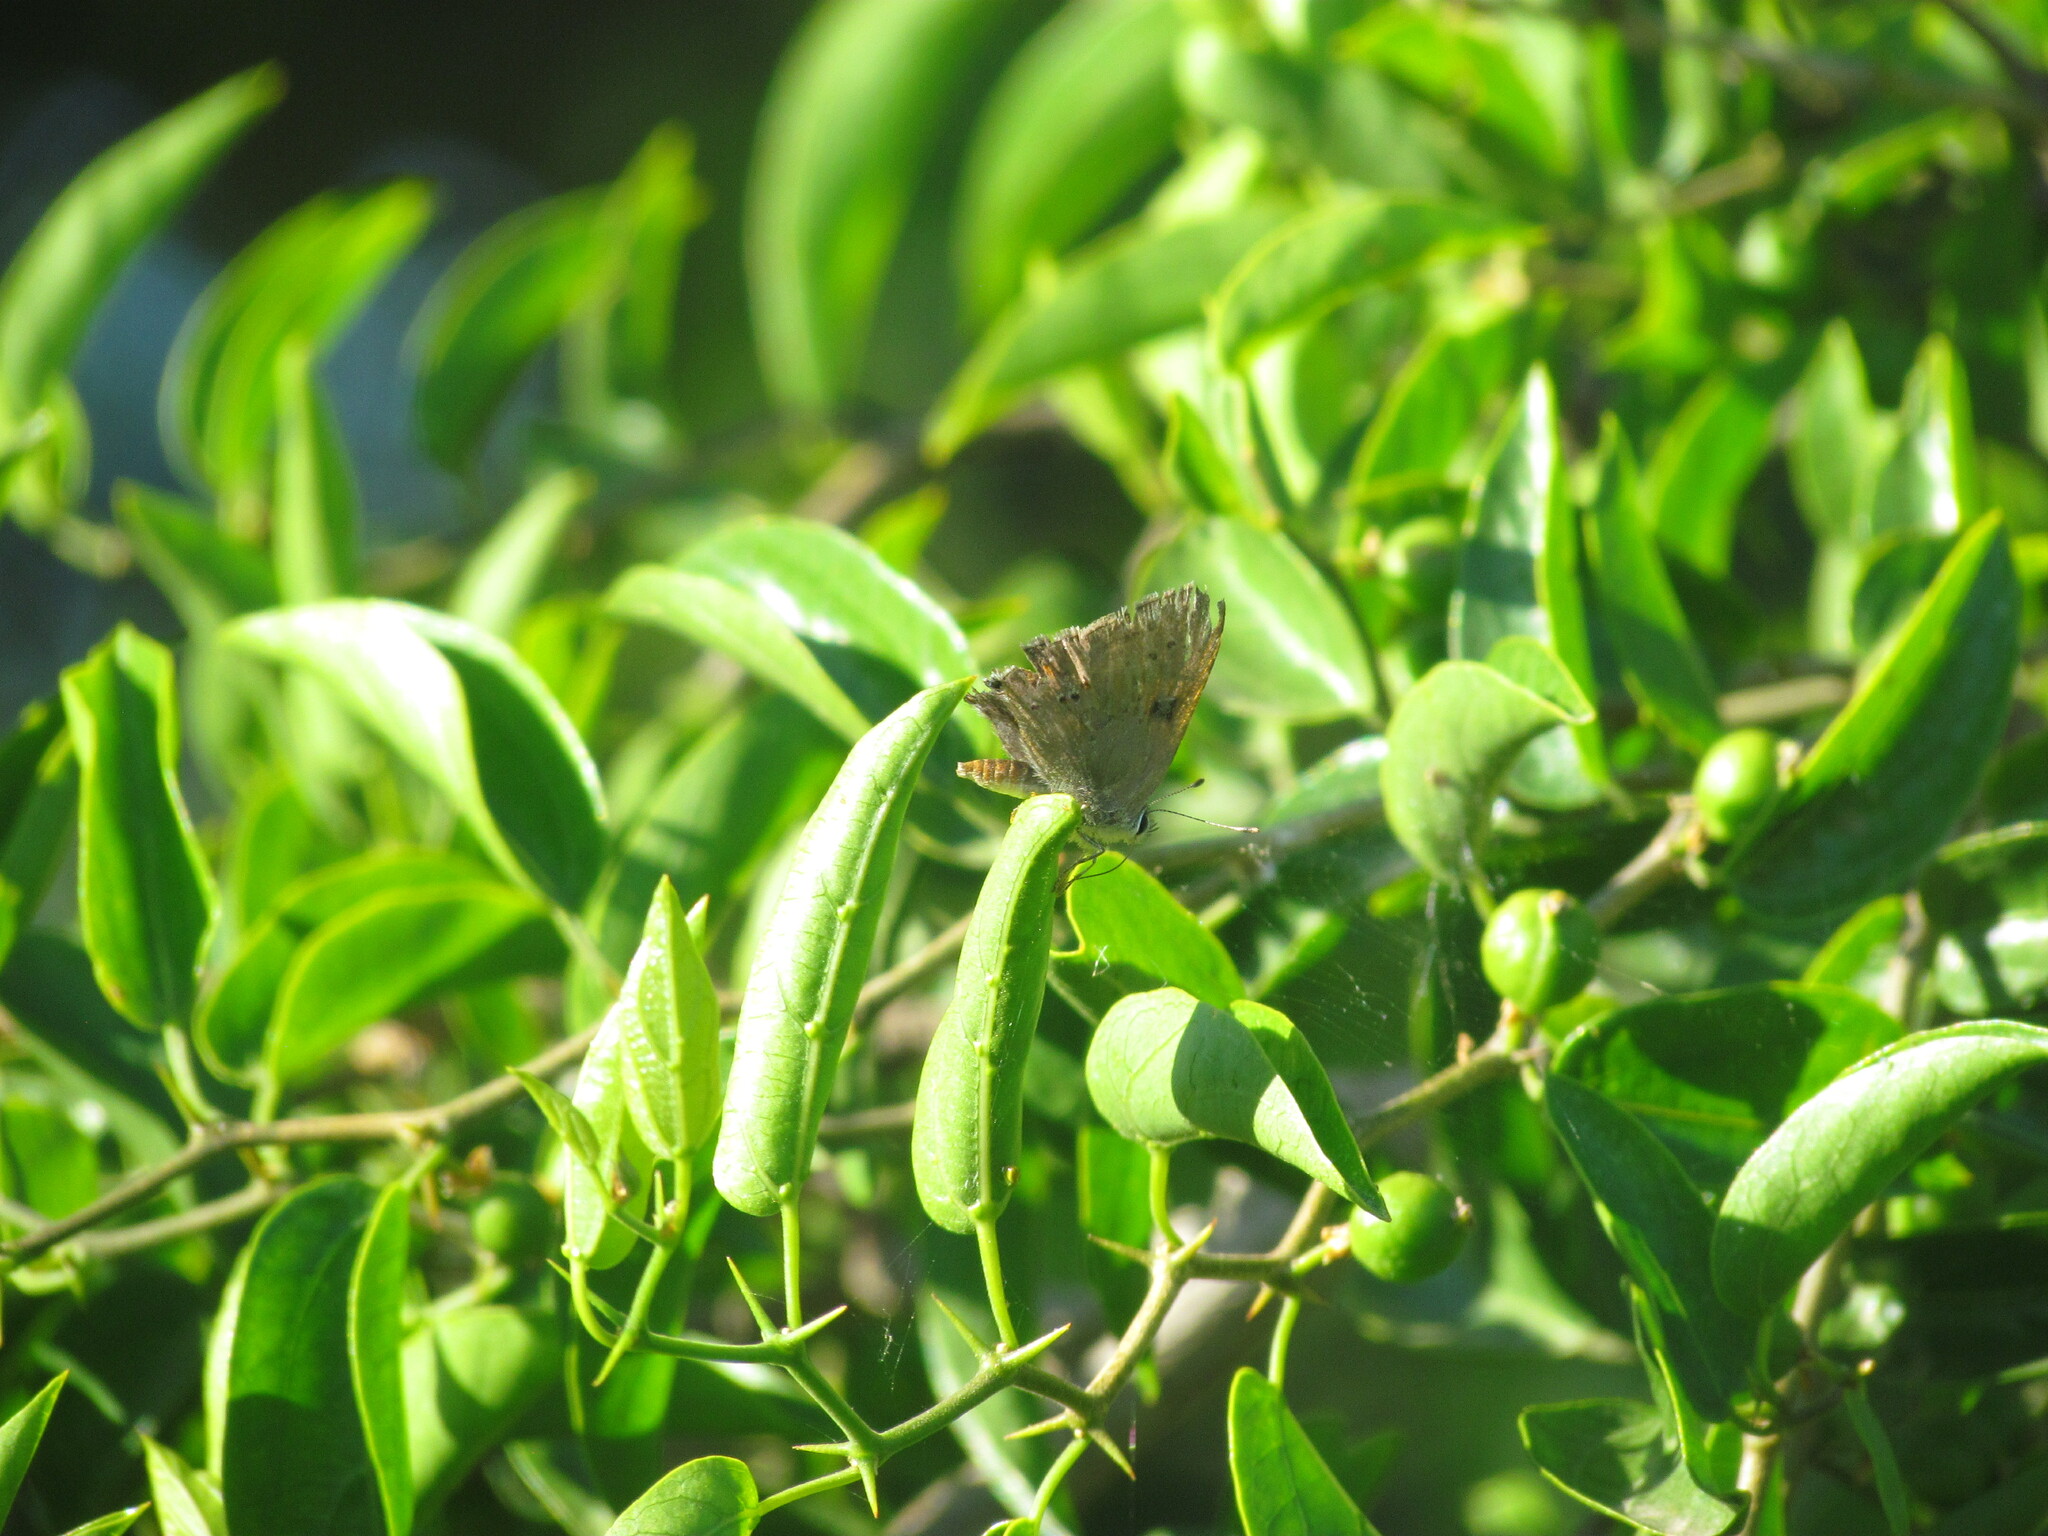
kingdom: Animalia
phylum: Arthropoda
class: Insecta
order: Lepidoptera
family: Lycaenidae
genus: Strymon
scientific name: Strymon eurytulus
